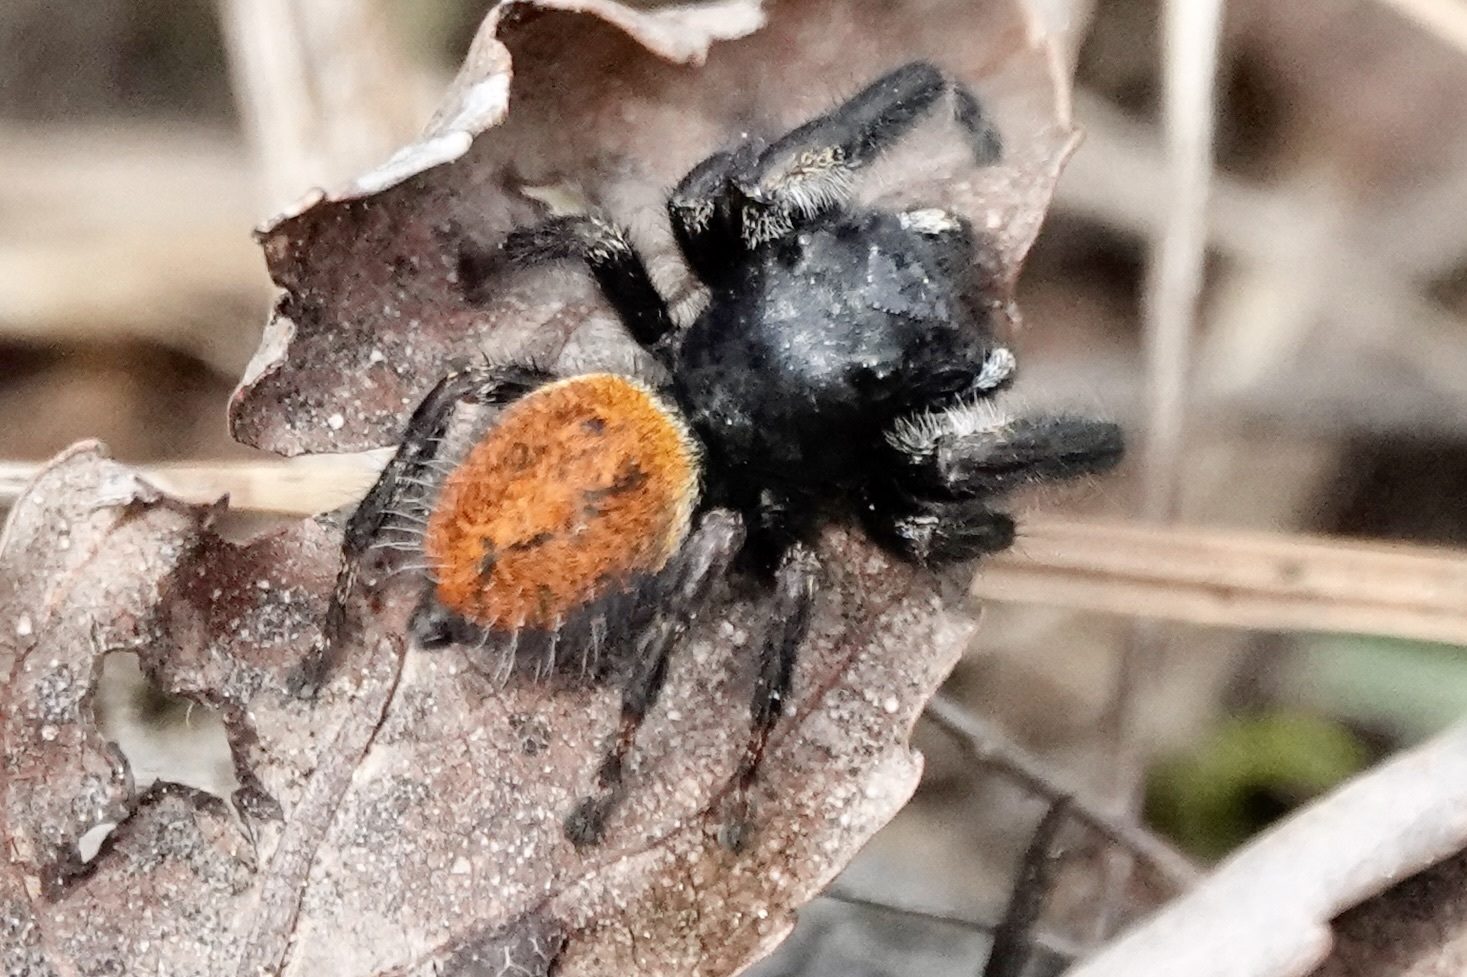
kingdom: Animalia
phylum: Arthropoda
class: Arachnida
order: Araneae
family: Salticidae
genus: Phidippus
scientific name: Phidippus princeps
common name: Grayish jumping spider
